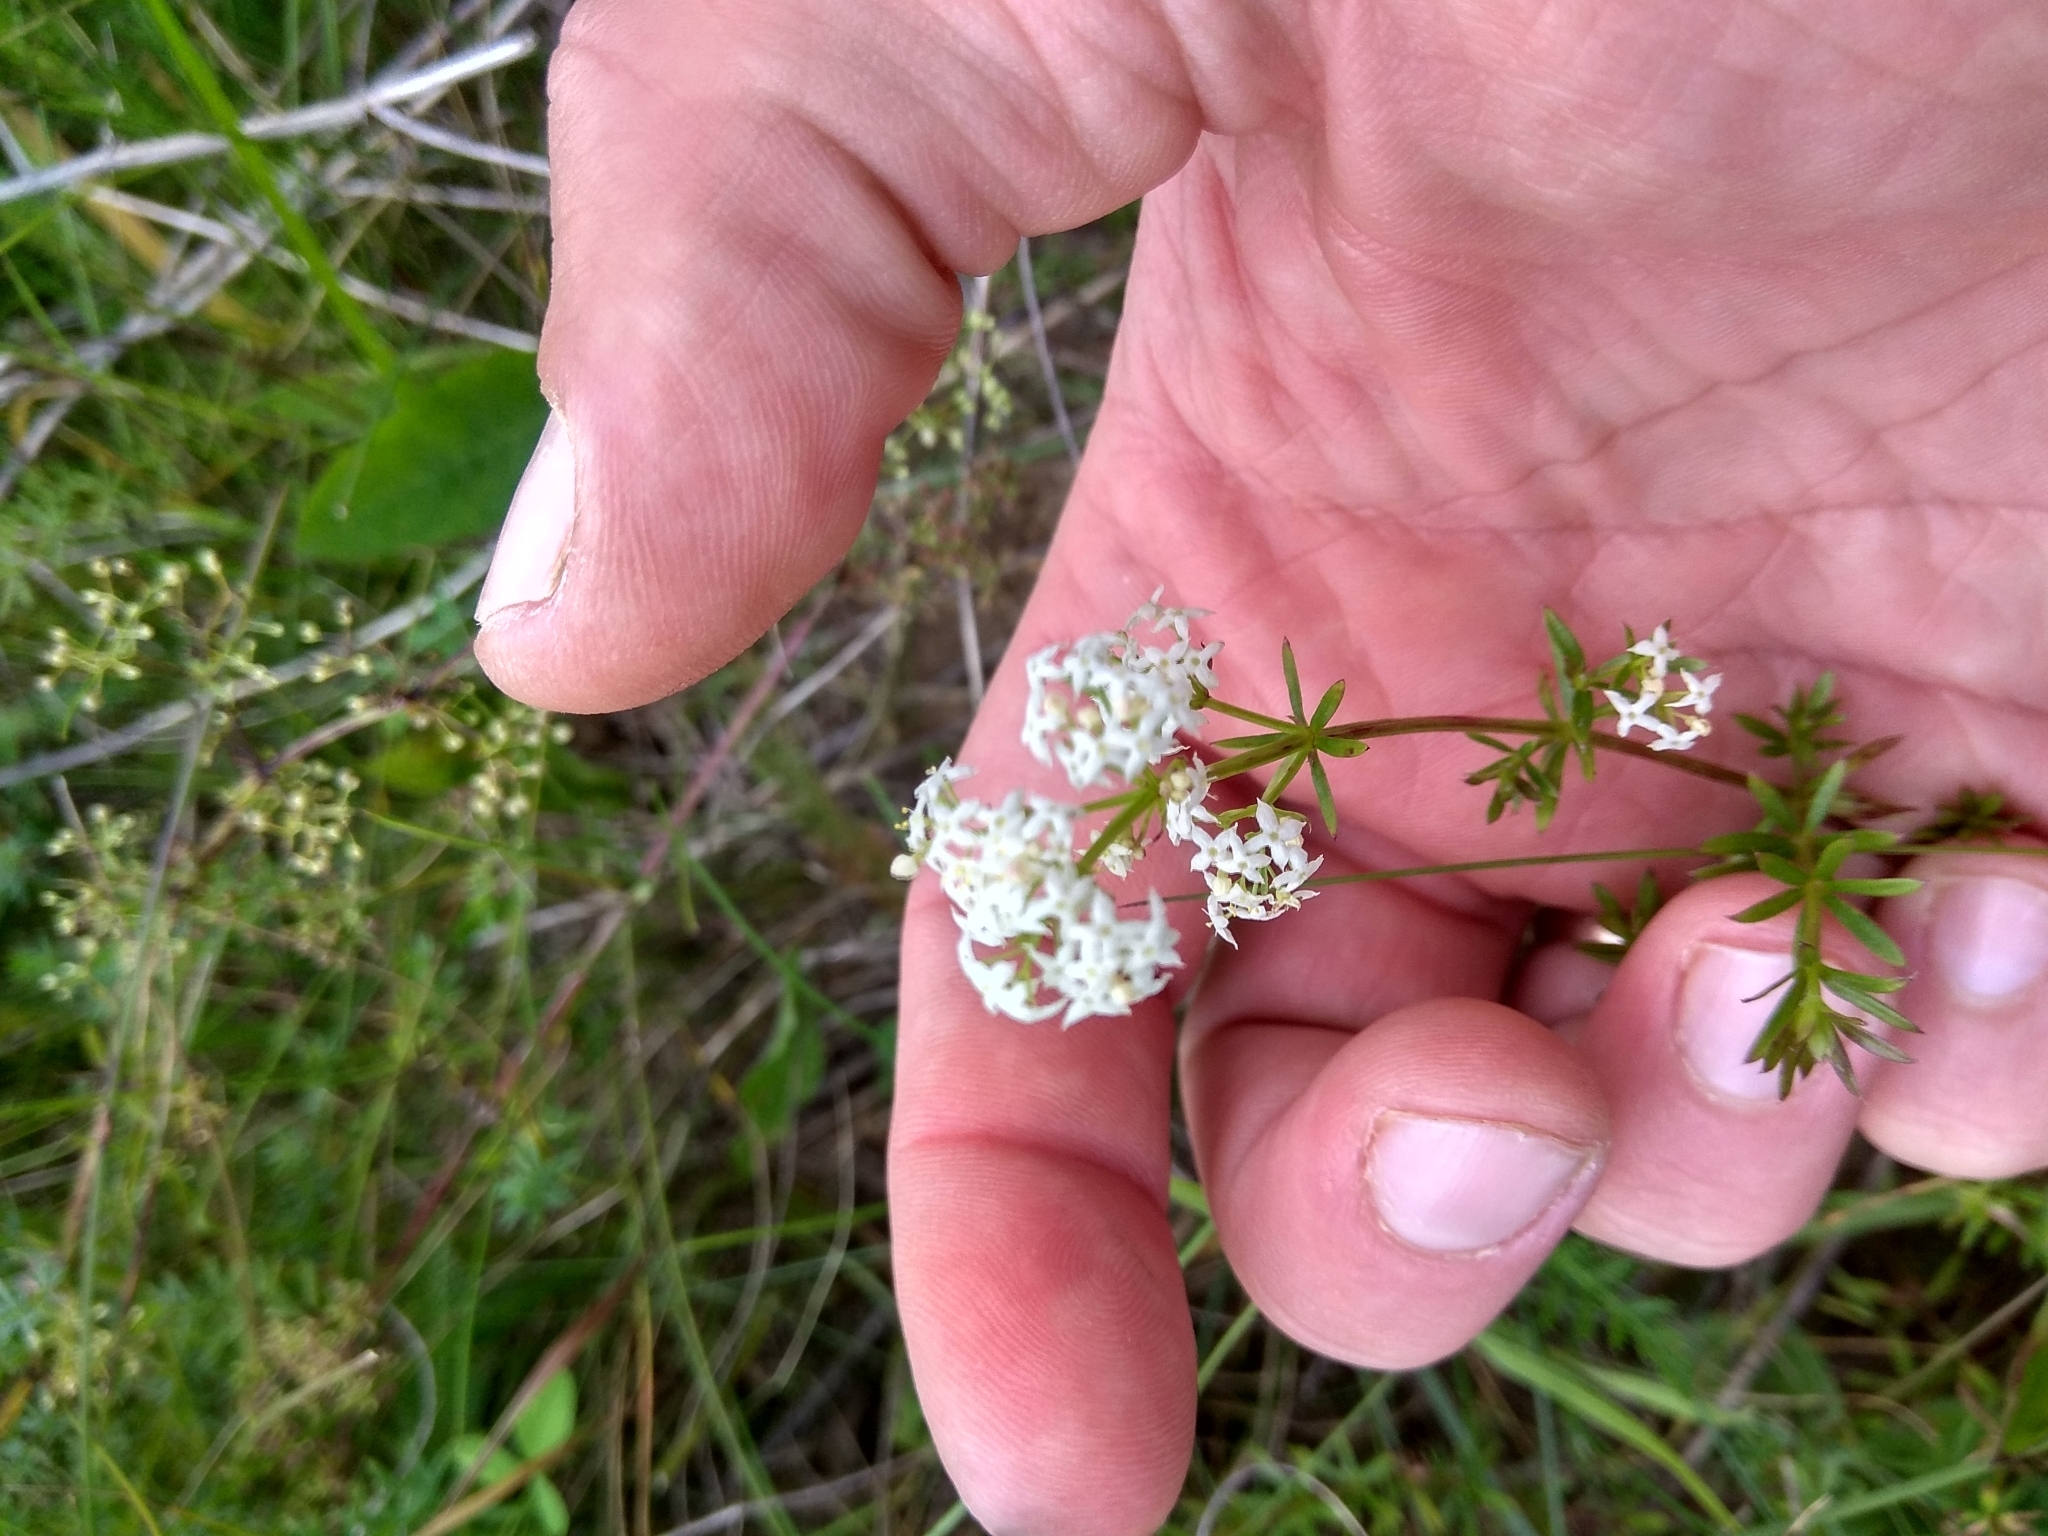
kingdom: Plantae
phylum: Tracheophyta
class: Magnoliopsida
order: Gentianales
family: Rubiaceae
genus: Galium
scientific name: Galium mollugo
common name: Hedge bedstraw
